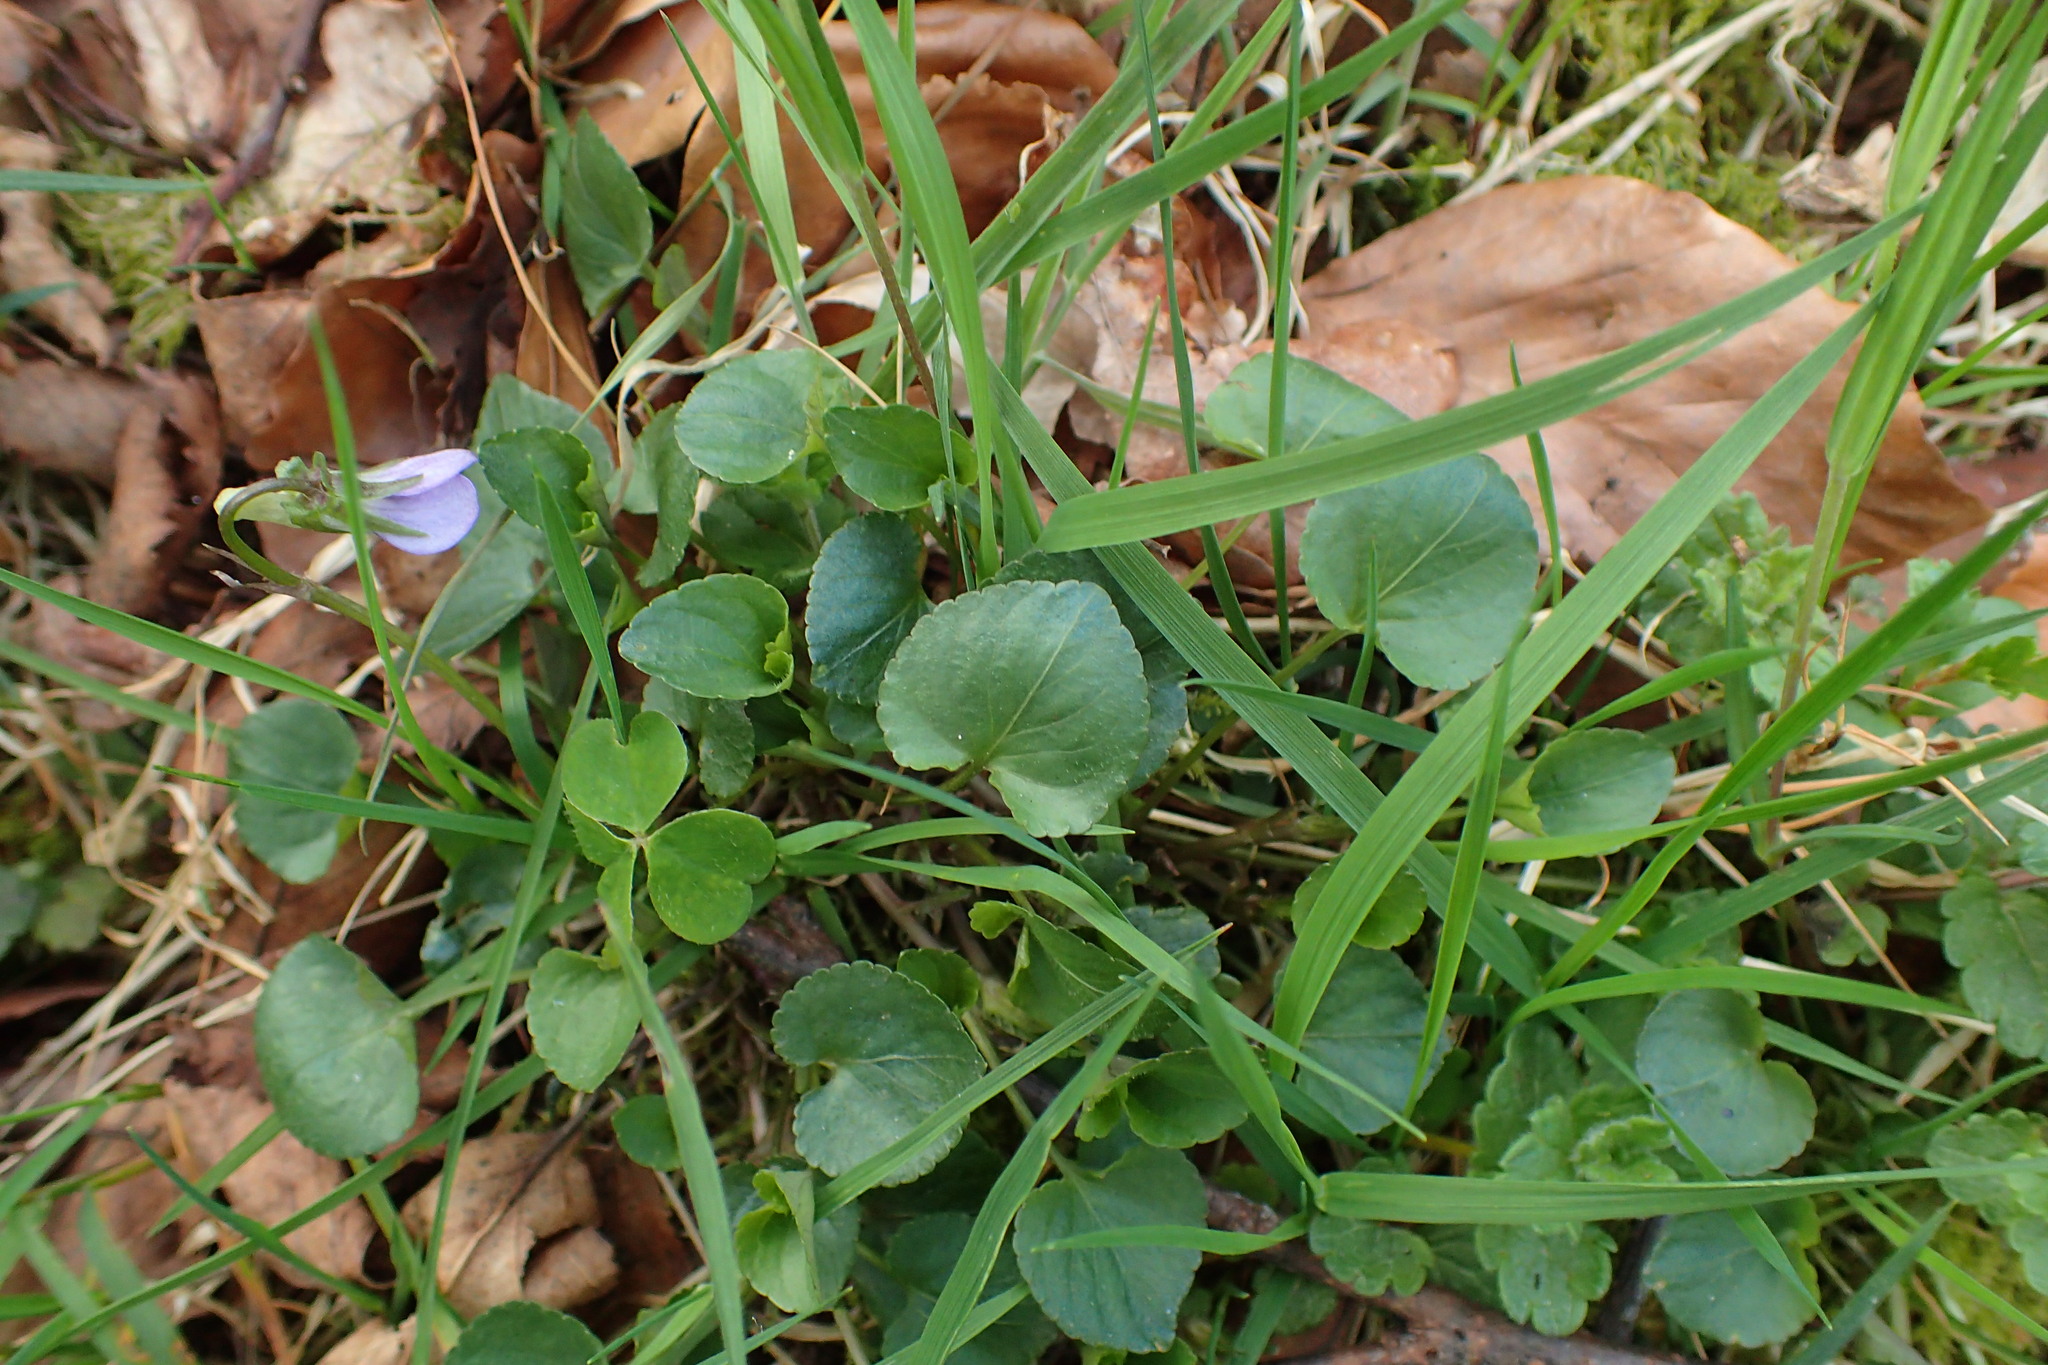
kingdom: Plantae
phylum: Tracheophyta
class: Magnoliopsida
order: Malpighiales
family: Violaceae
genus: Viola
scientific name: Viola riviniana
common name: Common dog-violet
